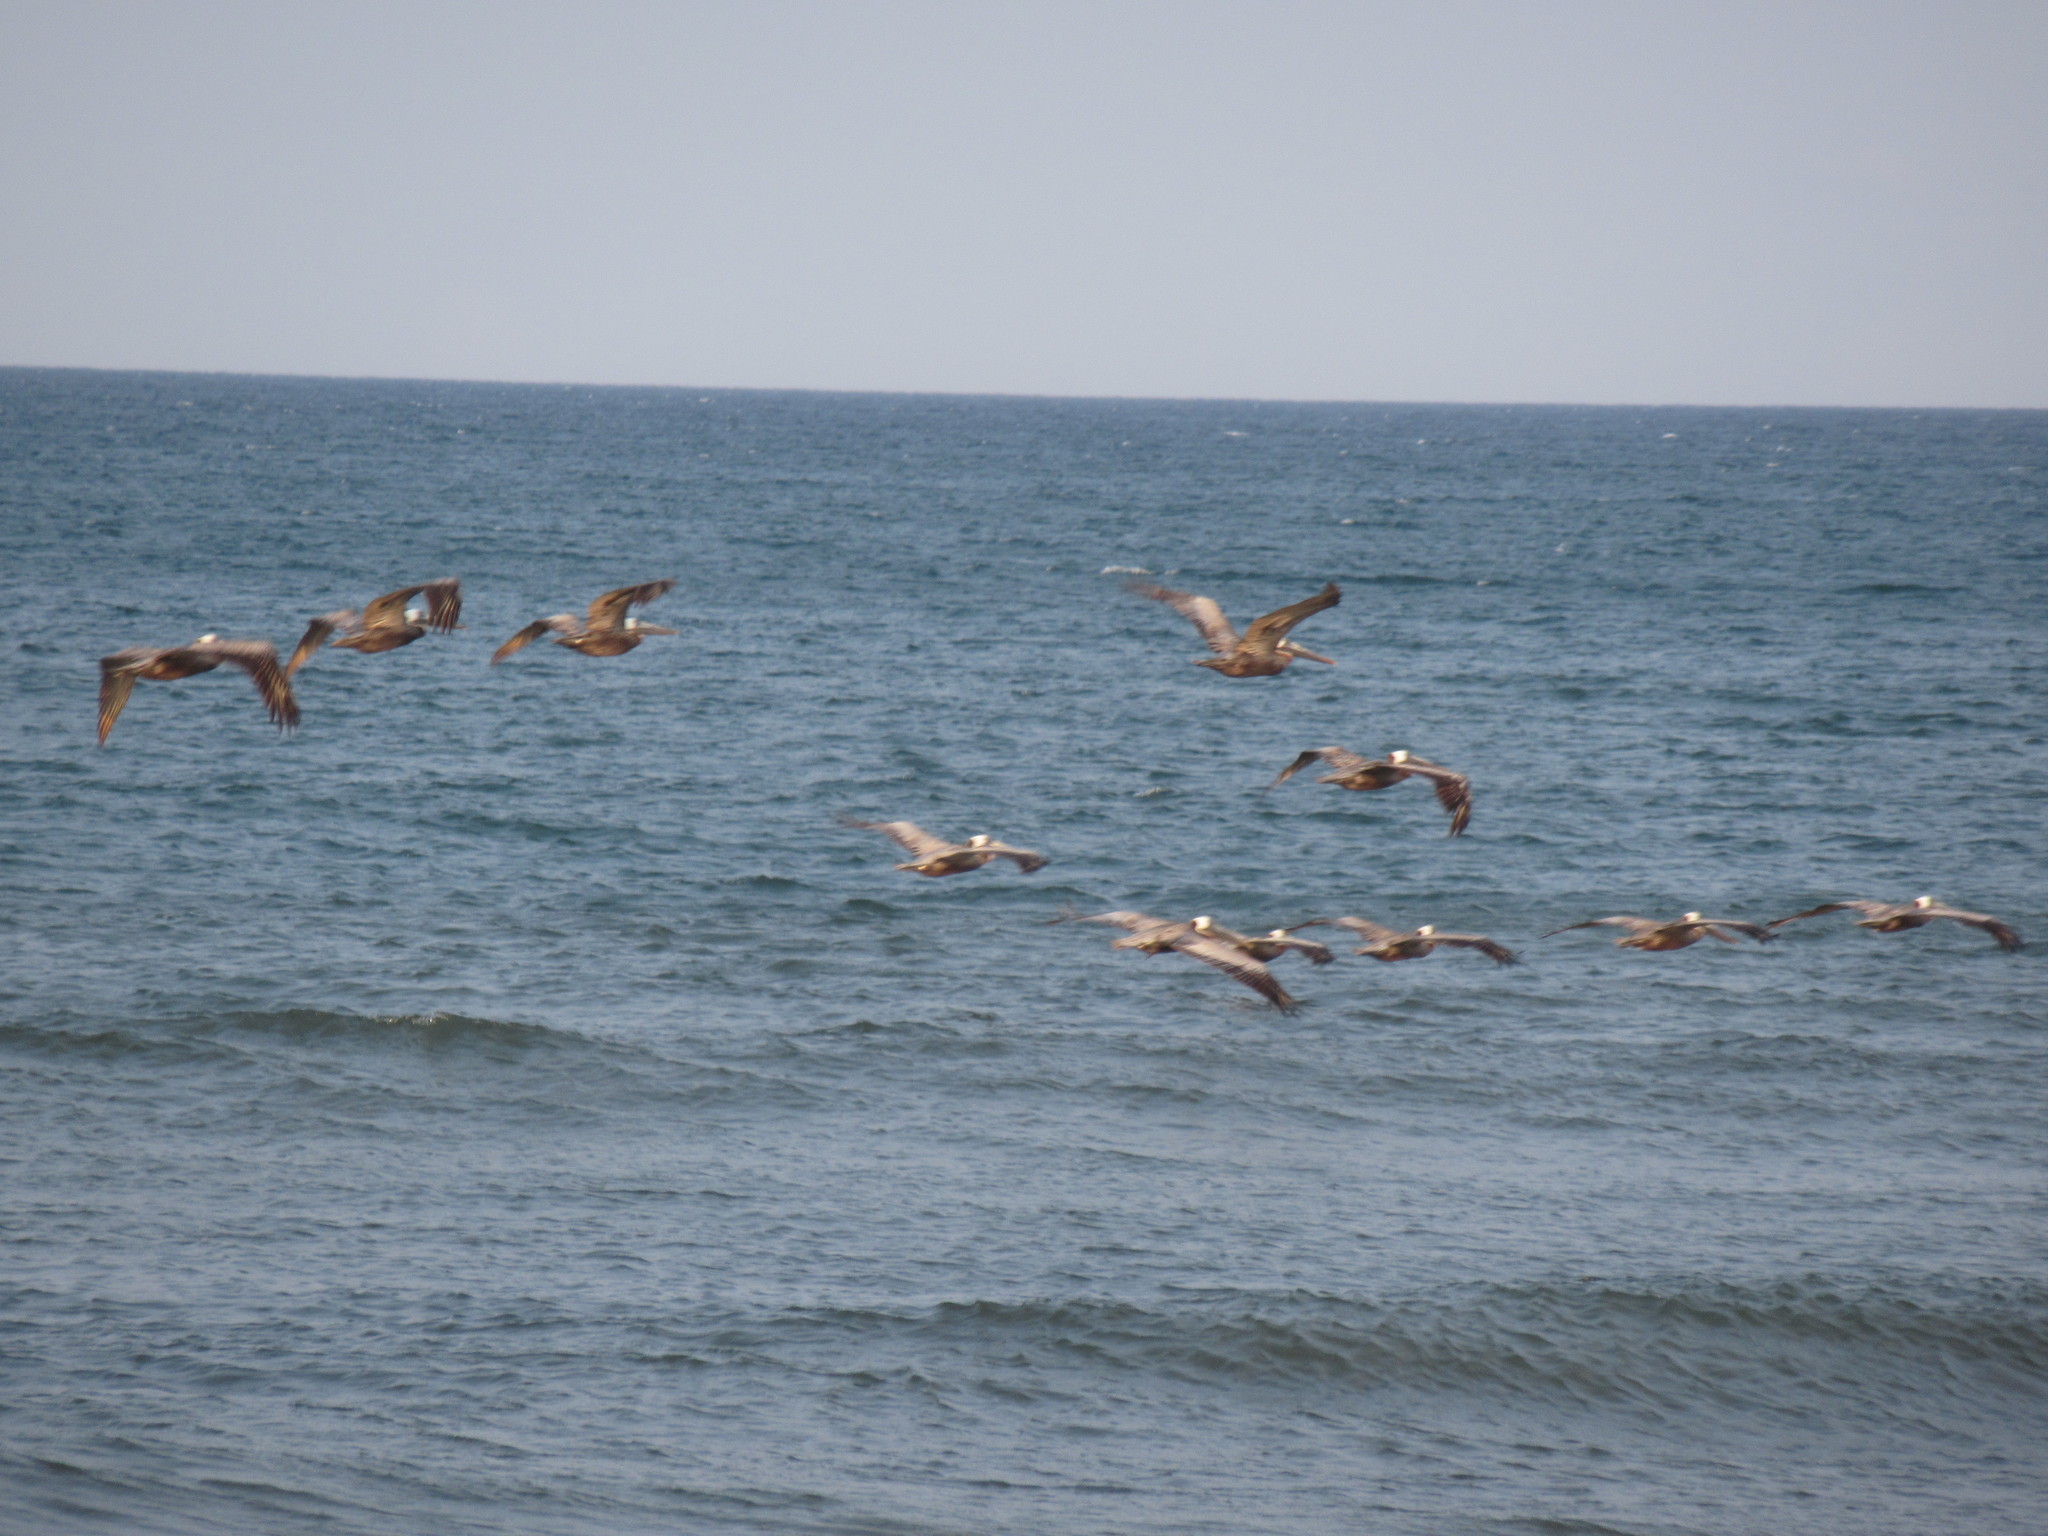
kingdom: Animalia
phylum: Chordata
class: Aves
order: Pelecaniformes
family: Pelecanidae
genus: Pelecanus
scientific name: Pelecanus occidentalis
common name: Brown pelican
